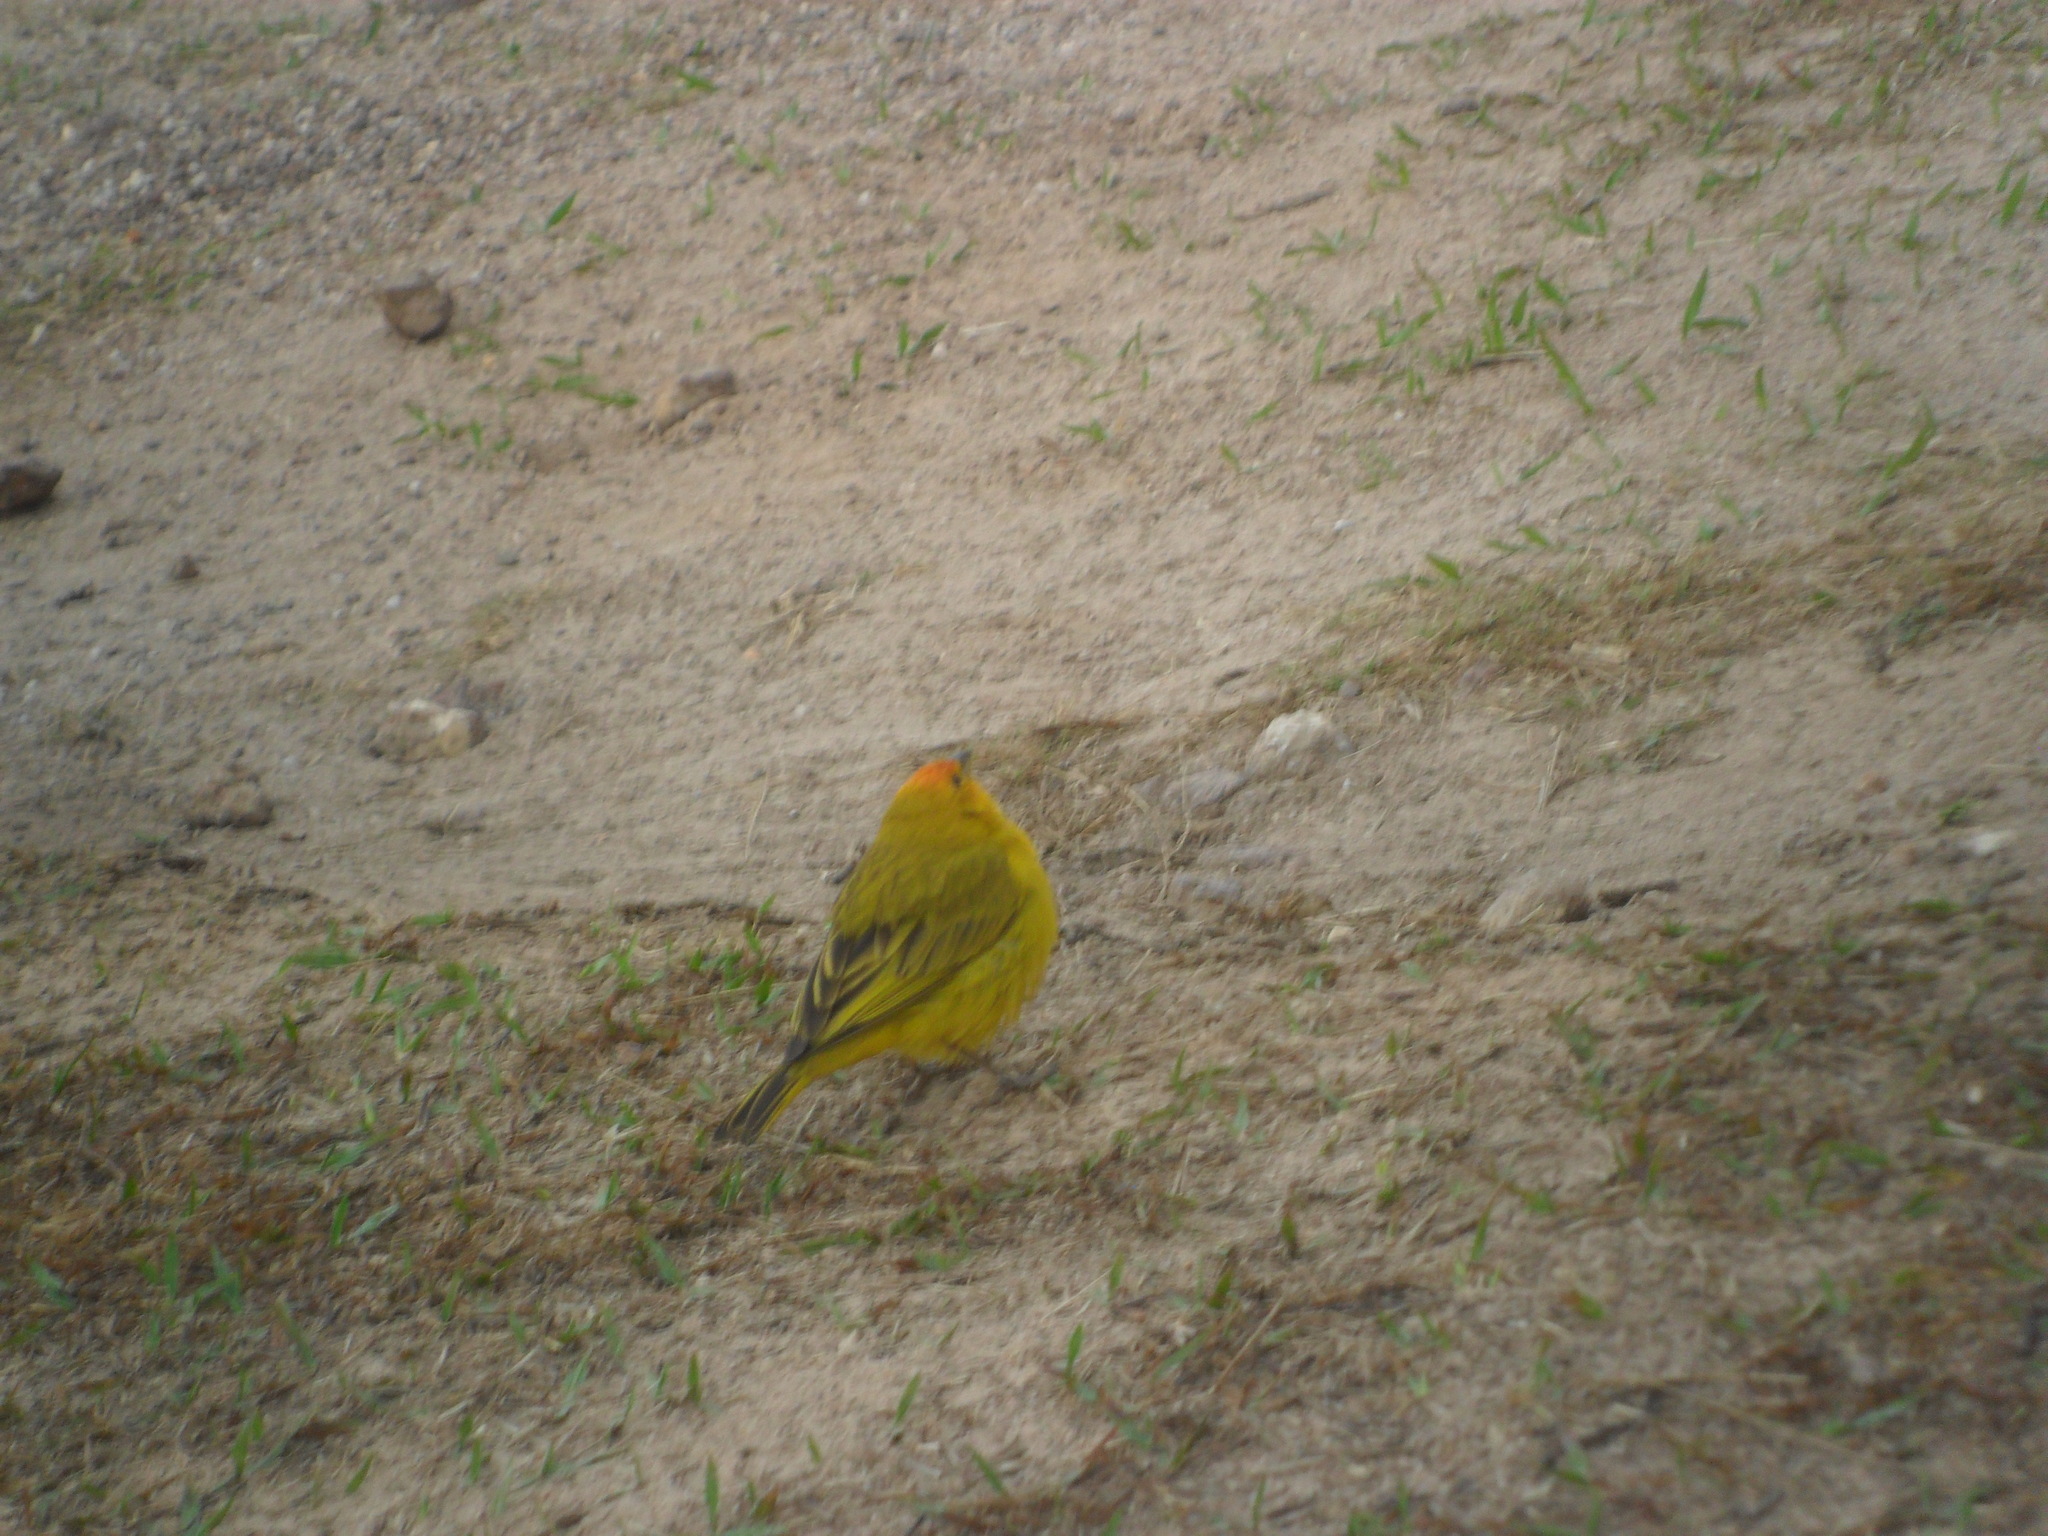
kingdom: Animalia
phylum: Chordata
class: Aves
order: Passeriformes
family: Thraupidae
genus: Sicalis
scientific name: Sicalis flaveola
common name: Saffron finch
